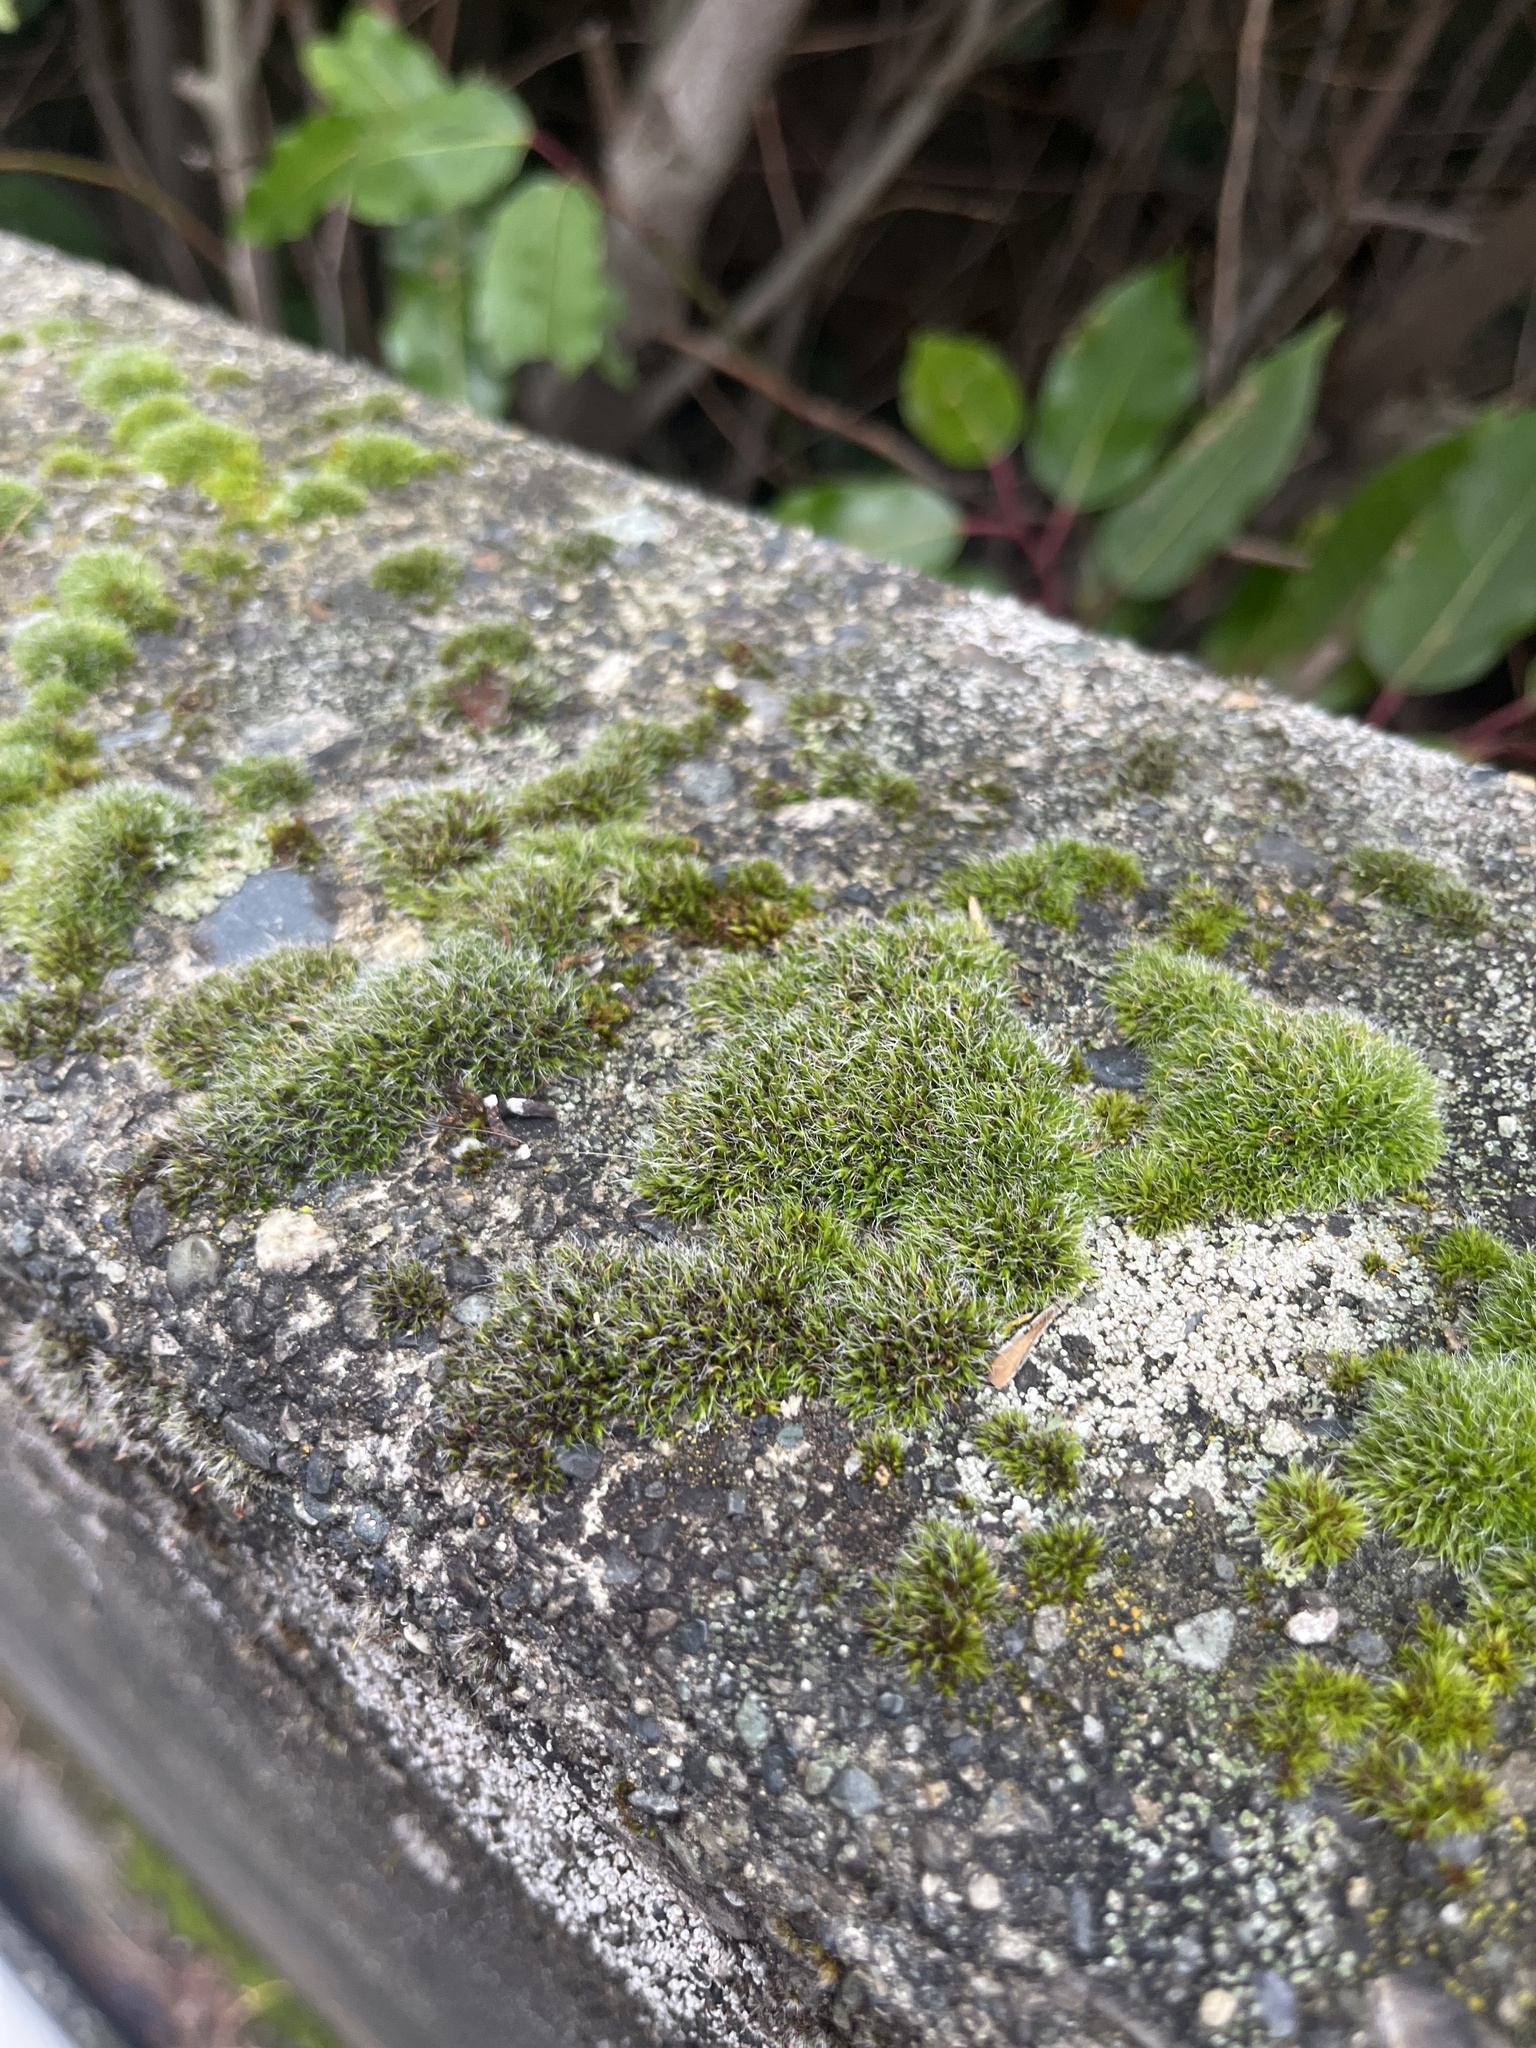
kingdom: Plantae
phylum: Bryophyta
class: Bryopsida
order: Grimmiales
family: Grimmiaceae
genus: Grimmia
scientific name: Grimmia pulvinata
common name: Grey-cushioned grimmia
